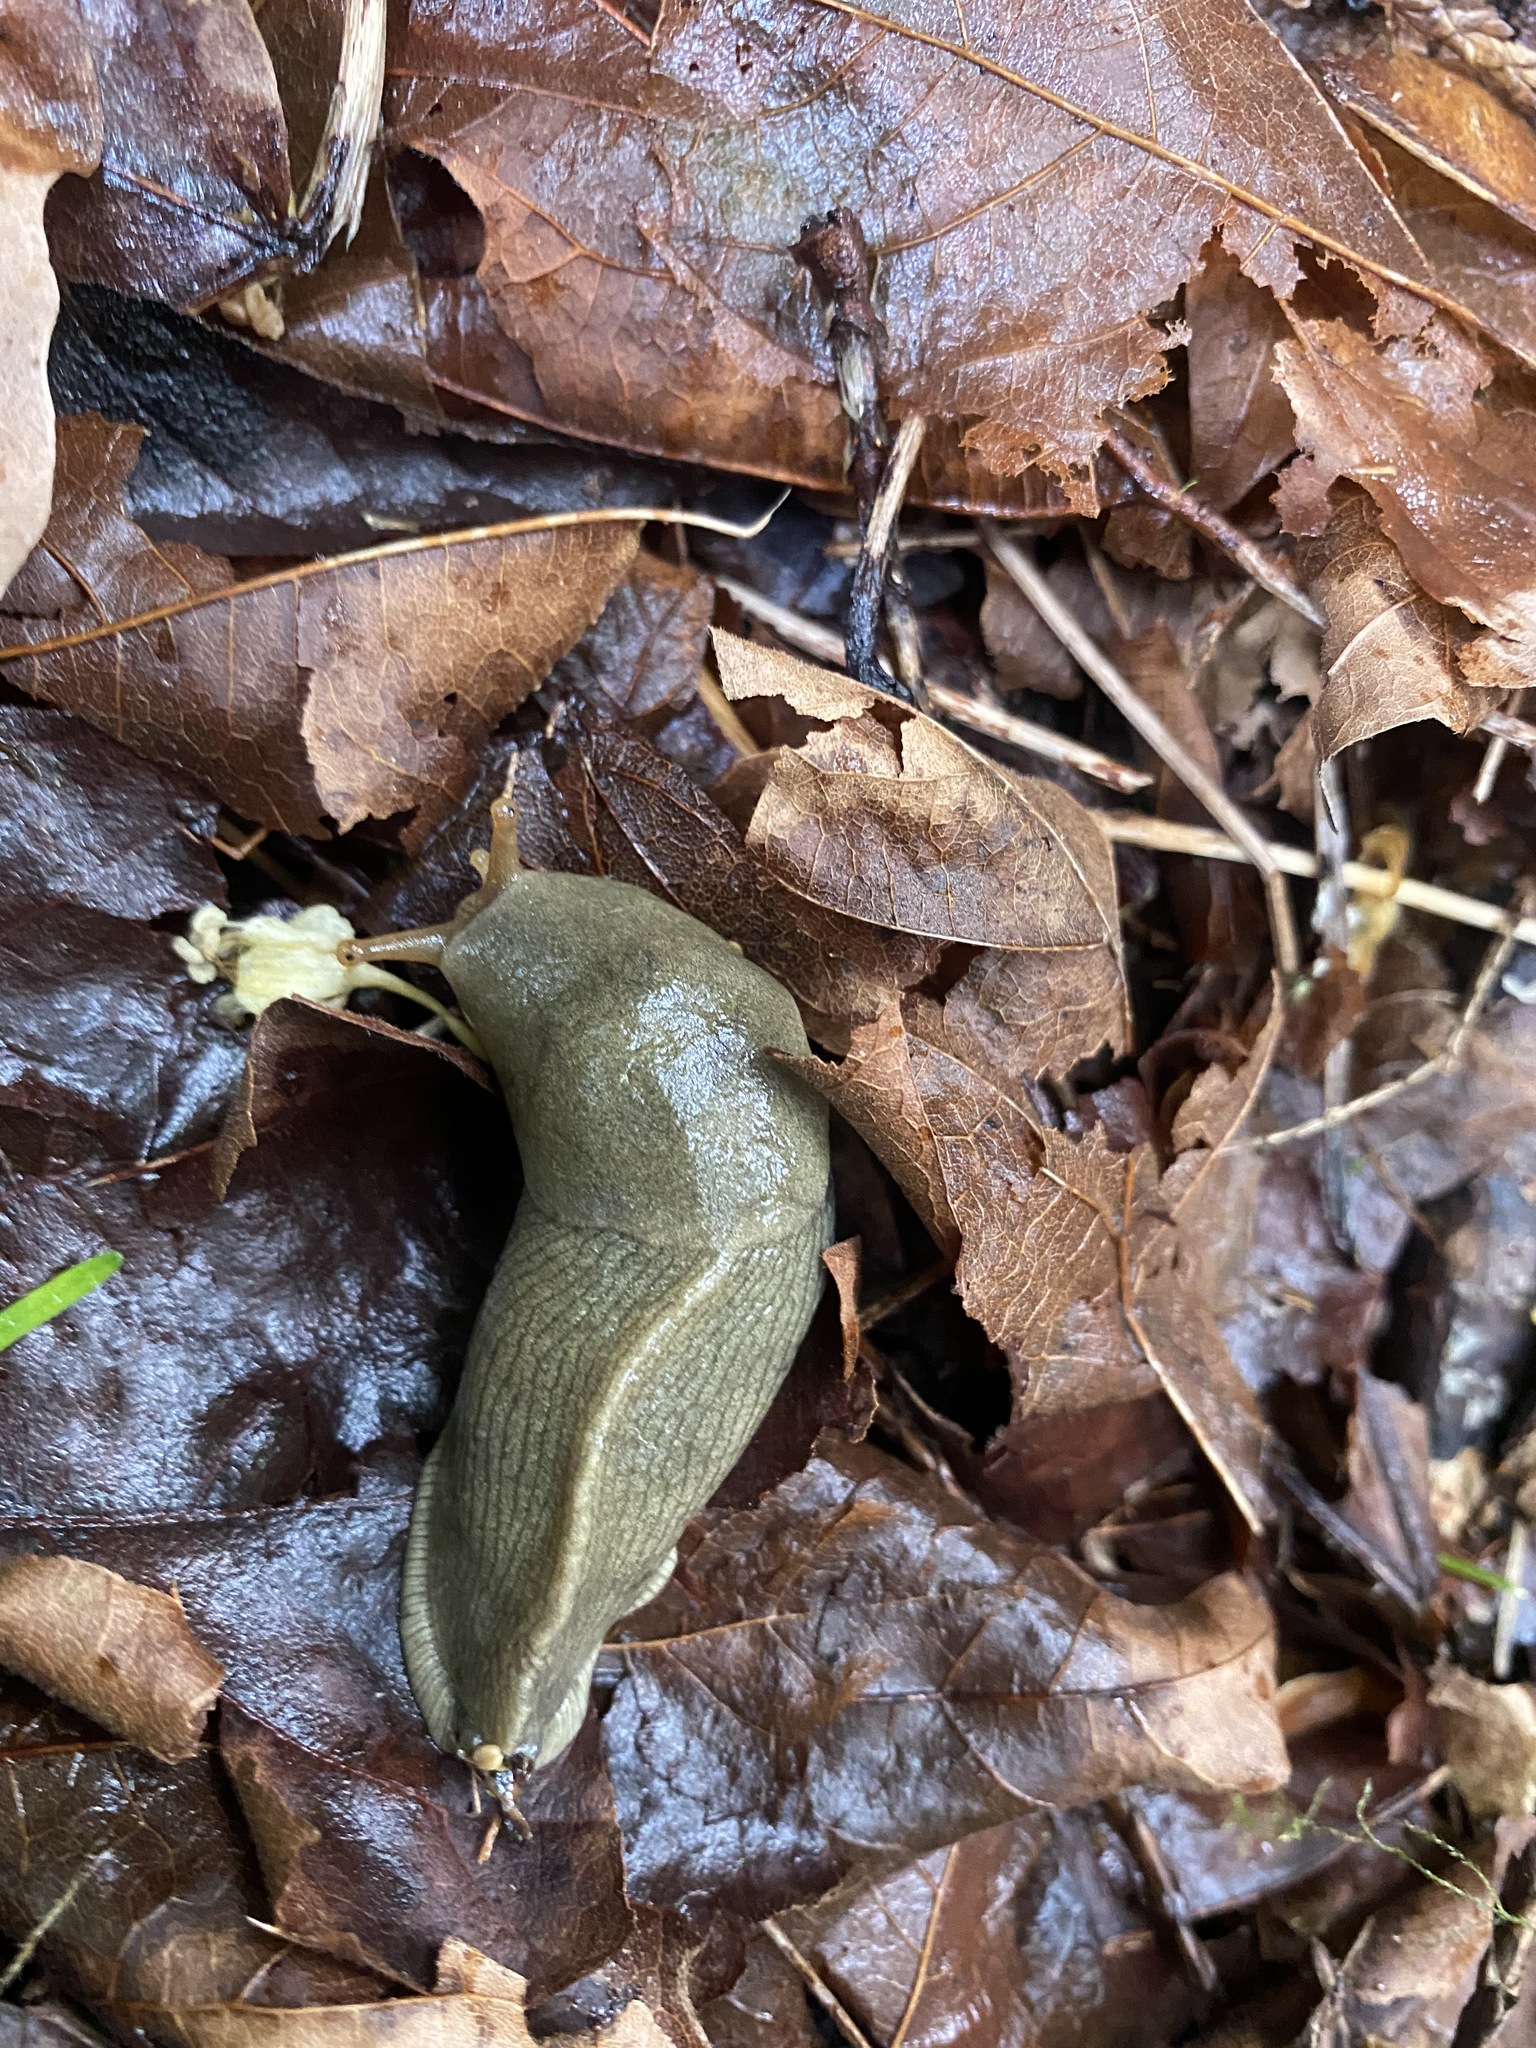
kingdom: Animalia
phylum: Mollusca
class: Gastropoda
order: Stylommatophora
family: Ariolimacidae
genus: Ariolimax
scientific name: Ariolimax columbianus
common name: Pacific banana slug
